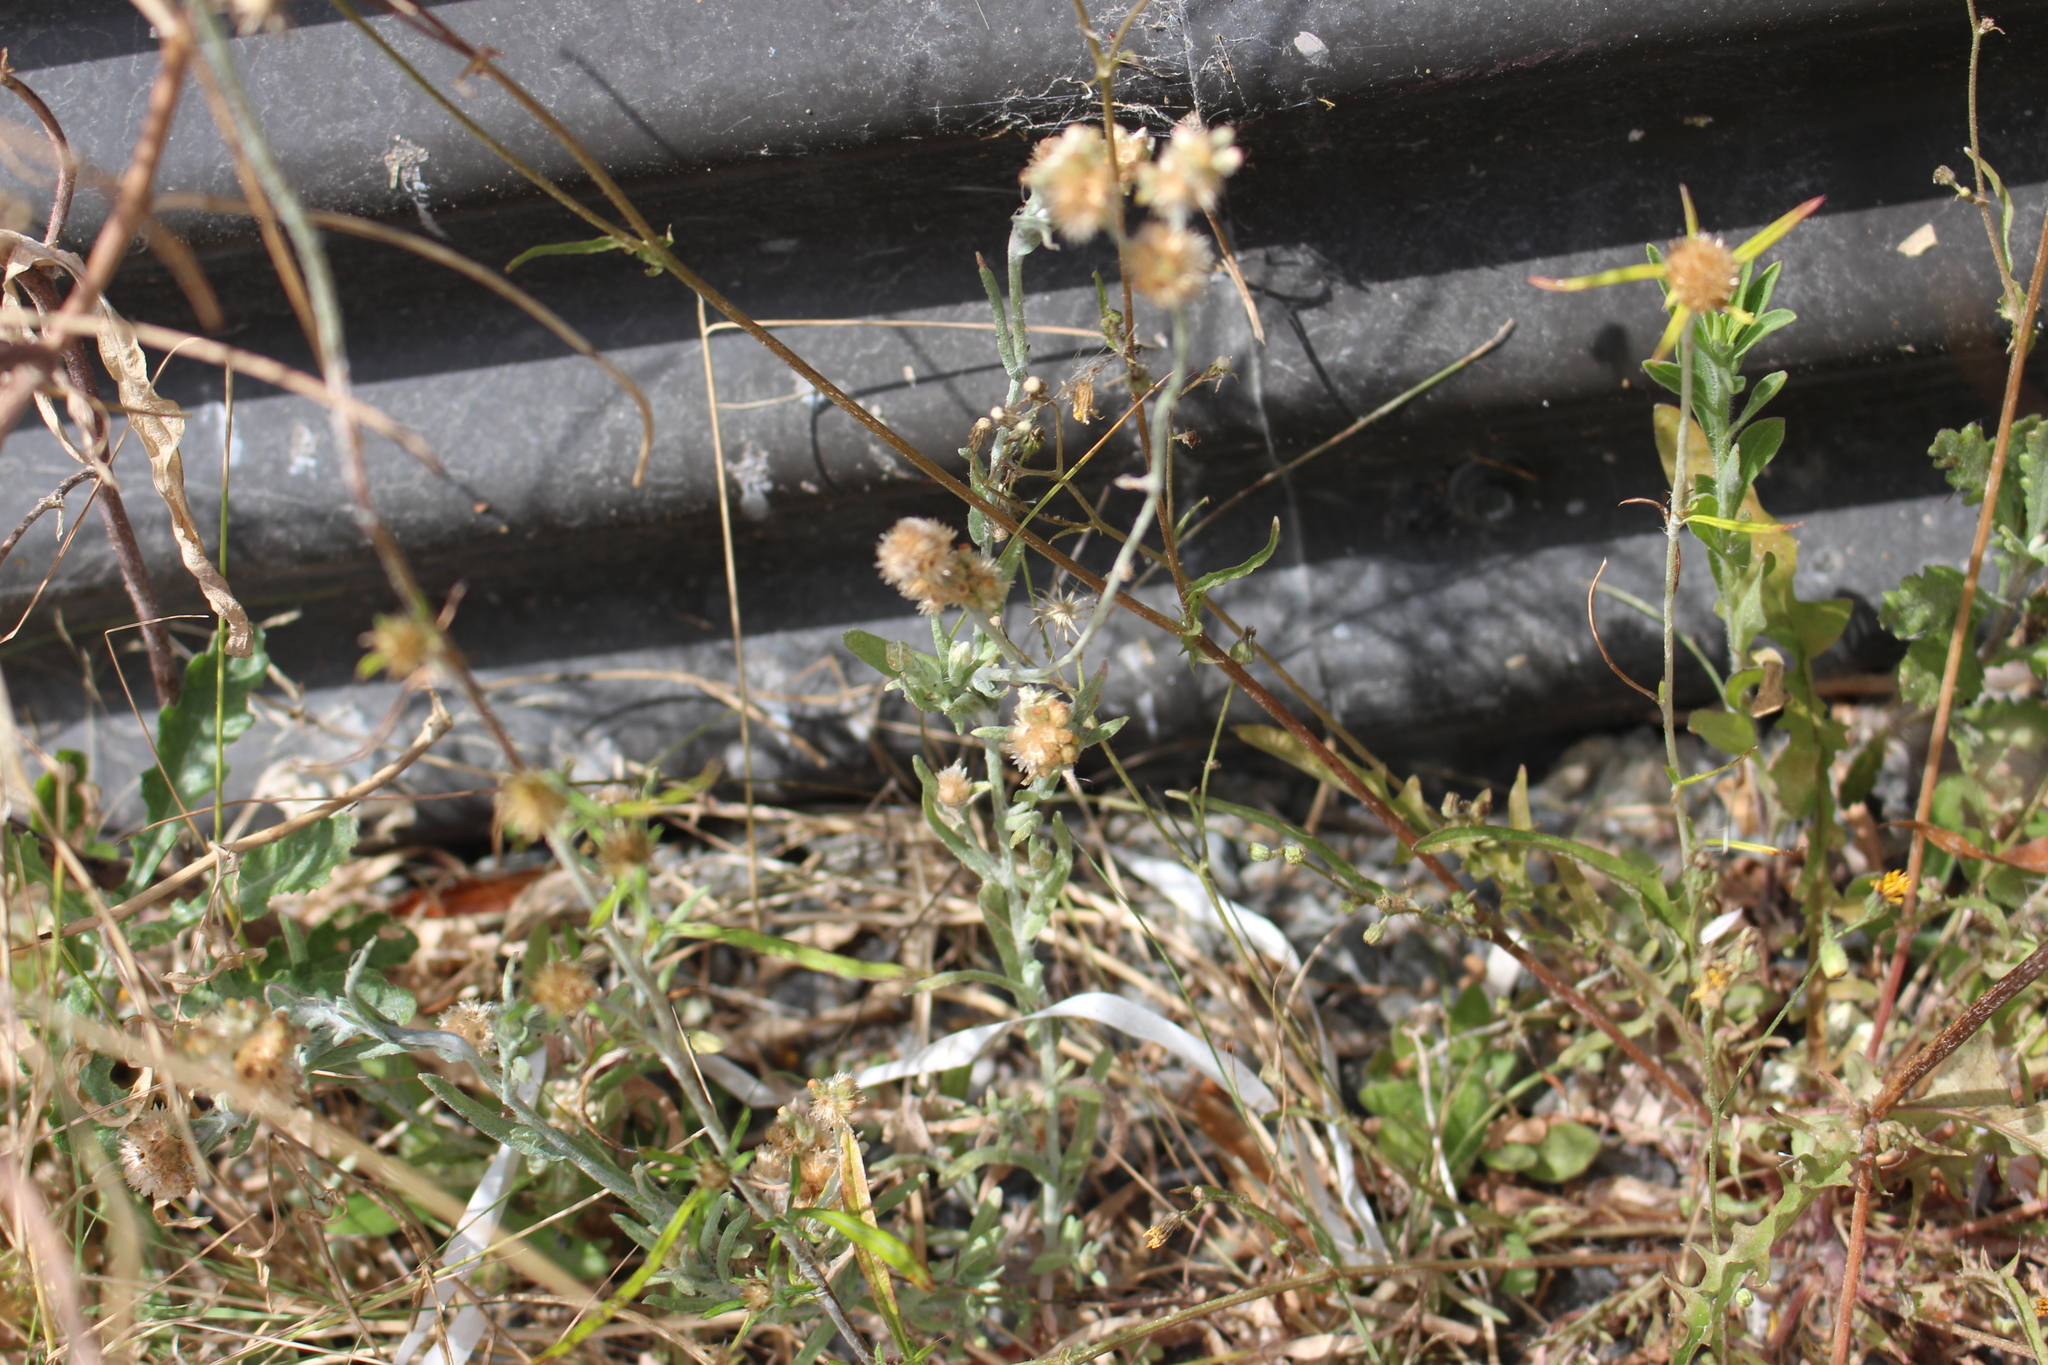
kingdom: Plantae
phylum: Tracheophyta
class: Magnoliopsida
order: Asterales
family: Asteraceae
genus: Helichrysum
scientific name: Helichrysum luteoalbum
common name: Daisy
